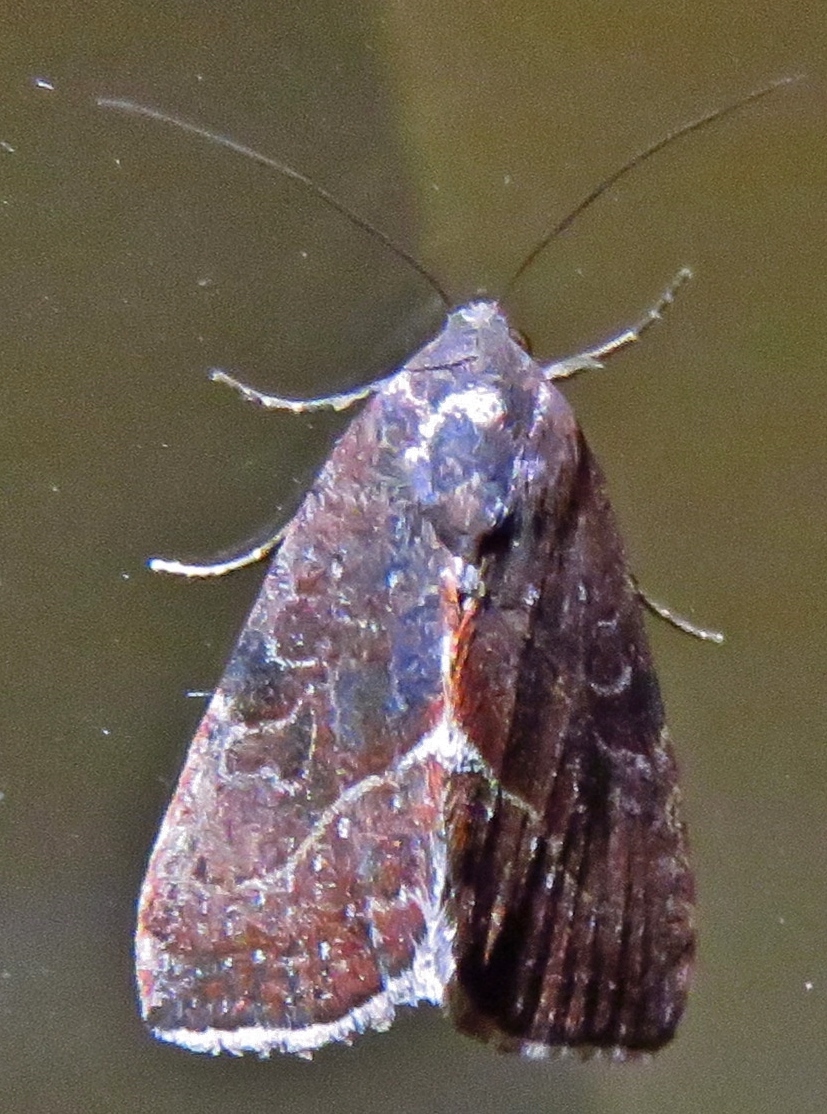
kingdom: Animalia
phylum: Arthropoda
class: Insecta
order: Lepidoptera
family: Noctuidae
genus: Galgula
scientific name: Galgula partita
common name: Wedgeling
